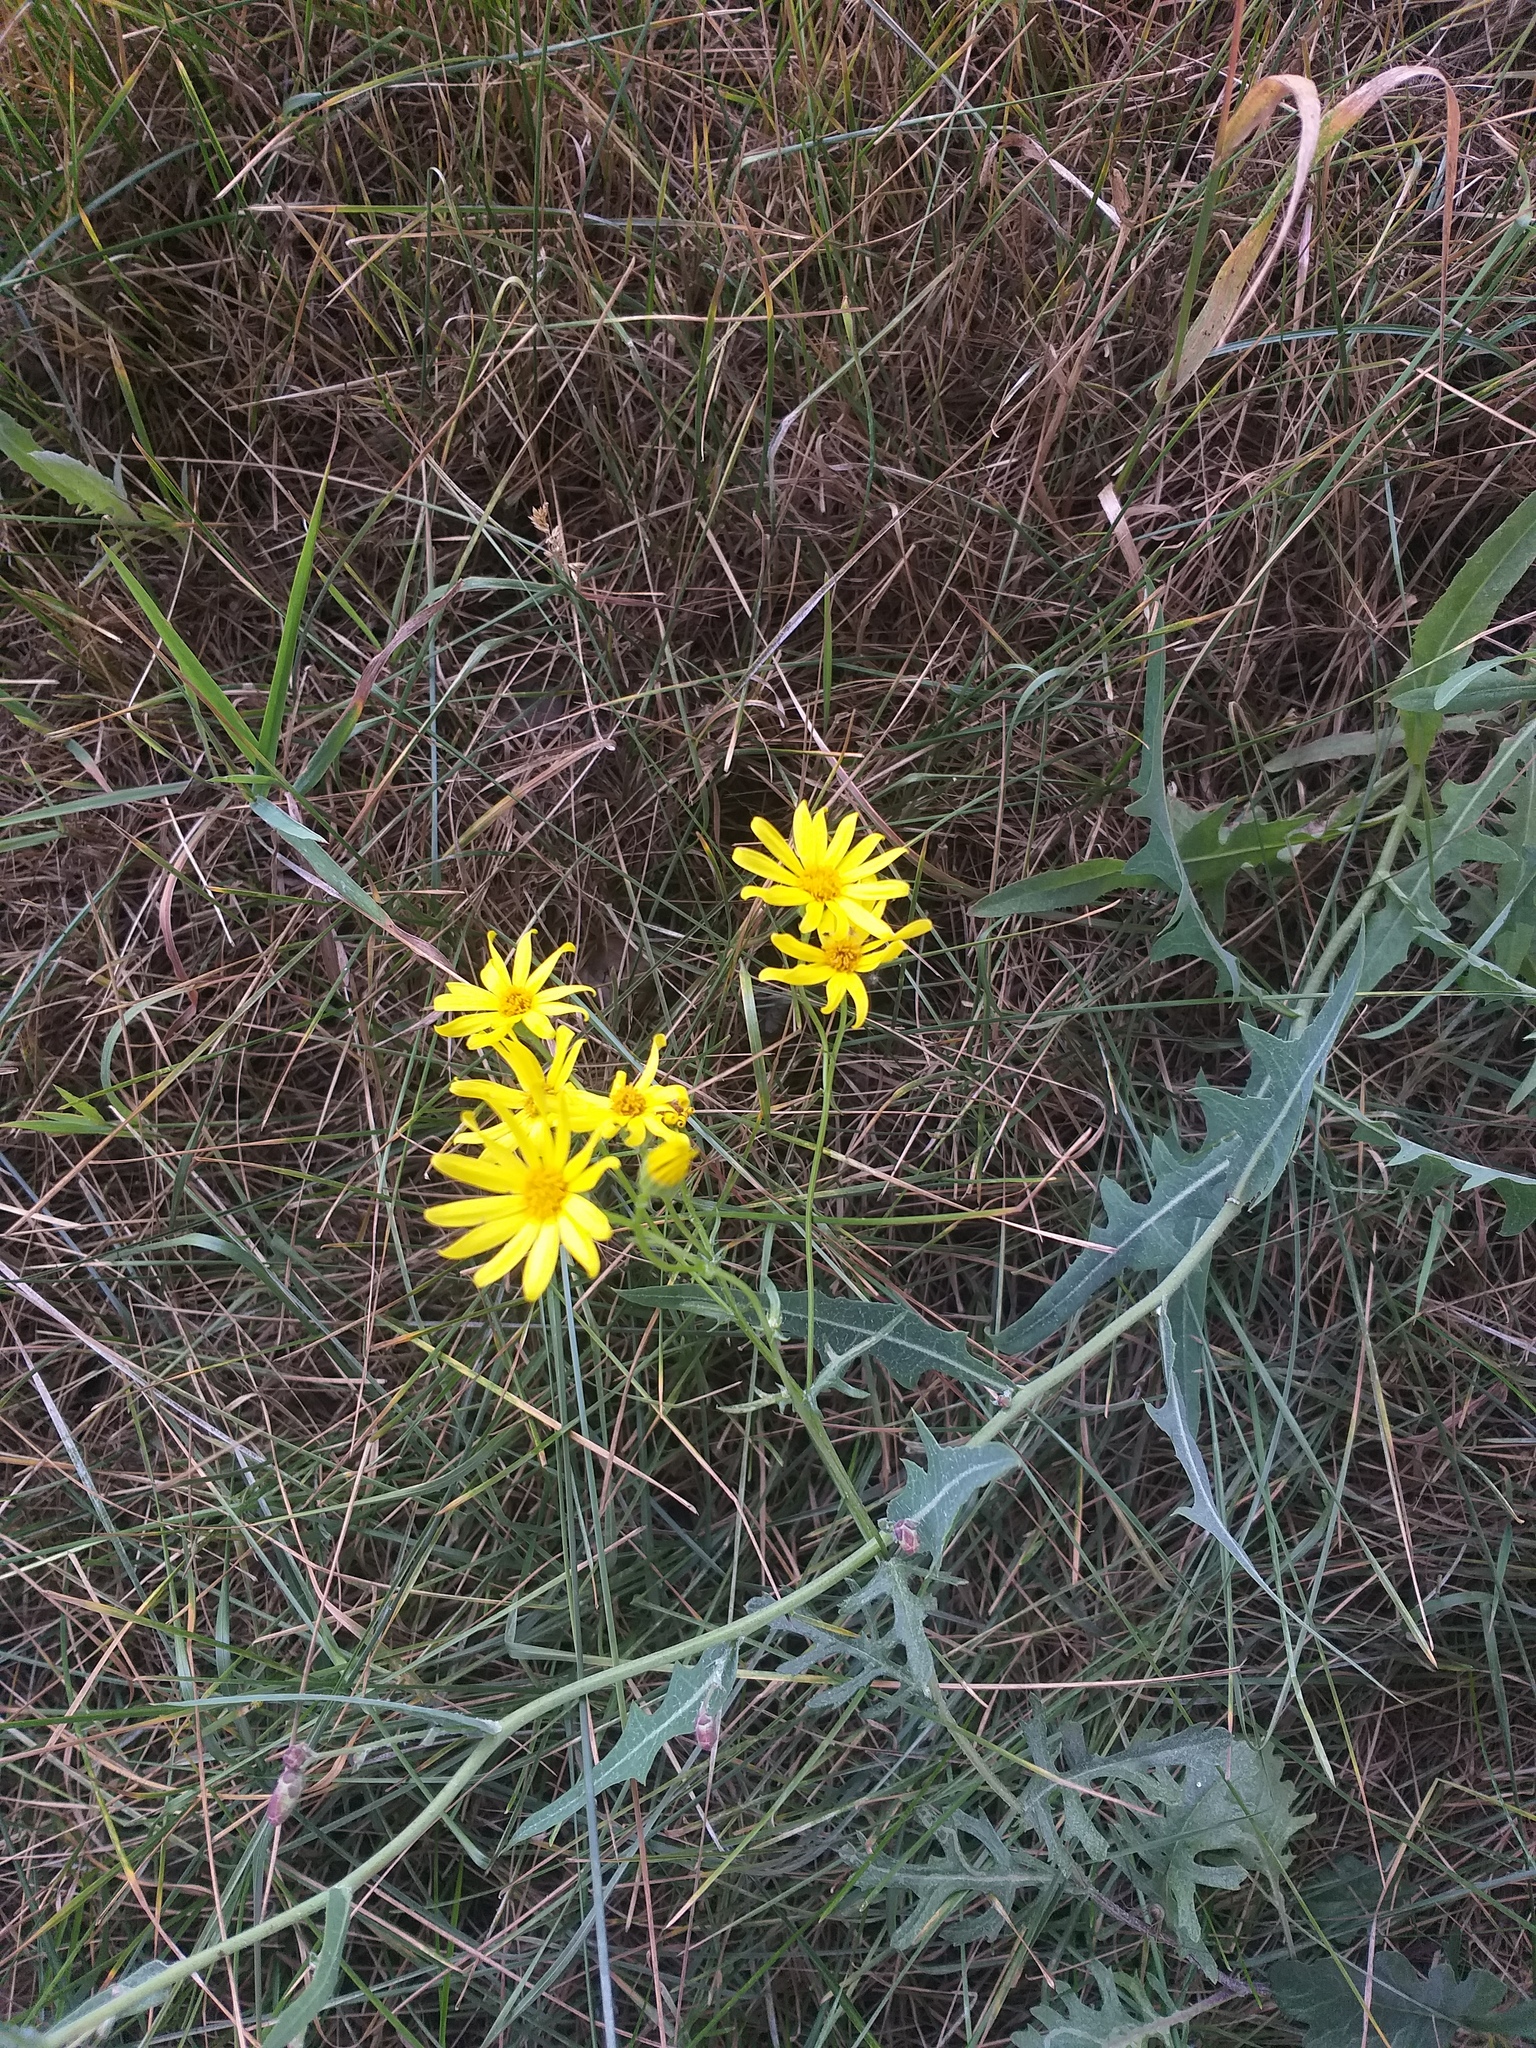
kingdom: Plantae
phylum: Tracheophyta
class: Magnoliopsida
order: Asterales
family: Asteraceae
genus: Jacobaea
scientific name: Jacobaea vulgaris
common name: Stinking willie
